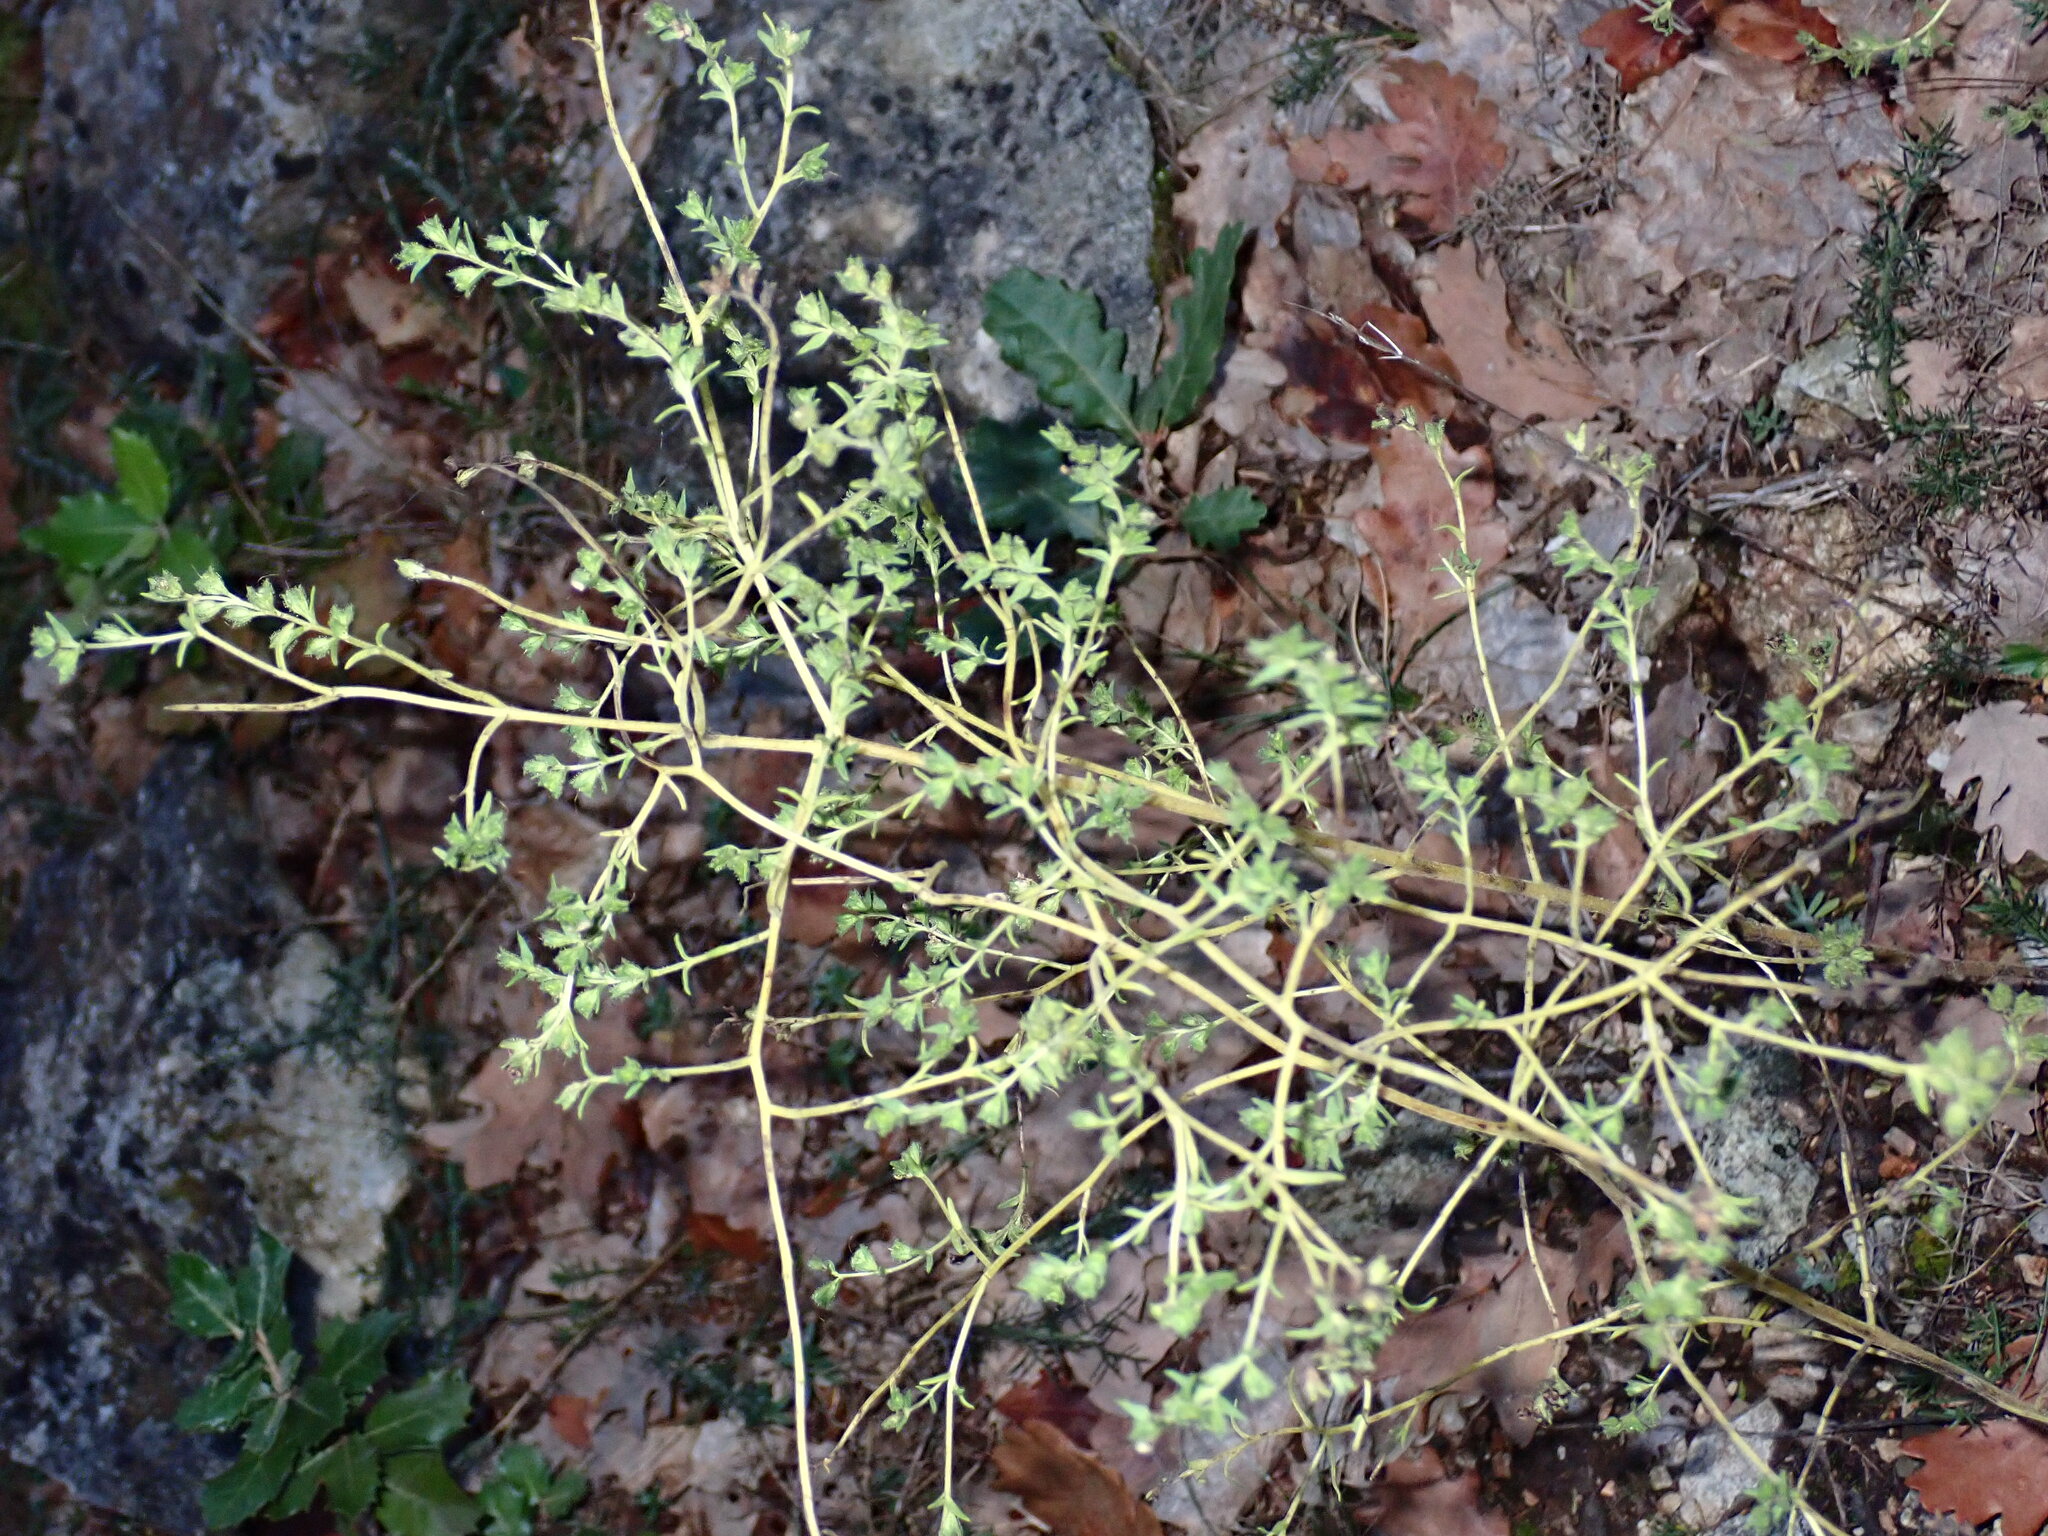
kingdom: Plantae
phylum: Tracheophyta
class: Magnoliopsida
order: Lamiales
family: Orobanchaceae
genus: Odontites
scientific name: Odontites viscosus
